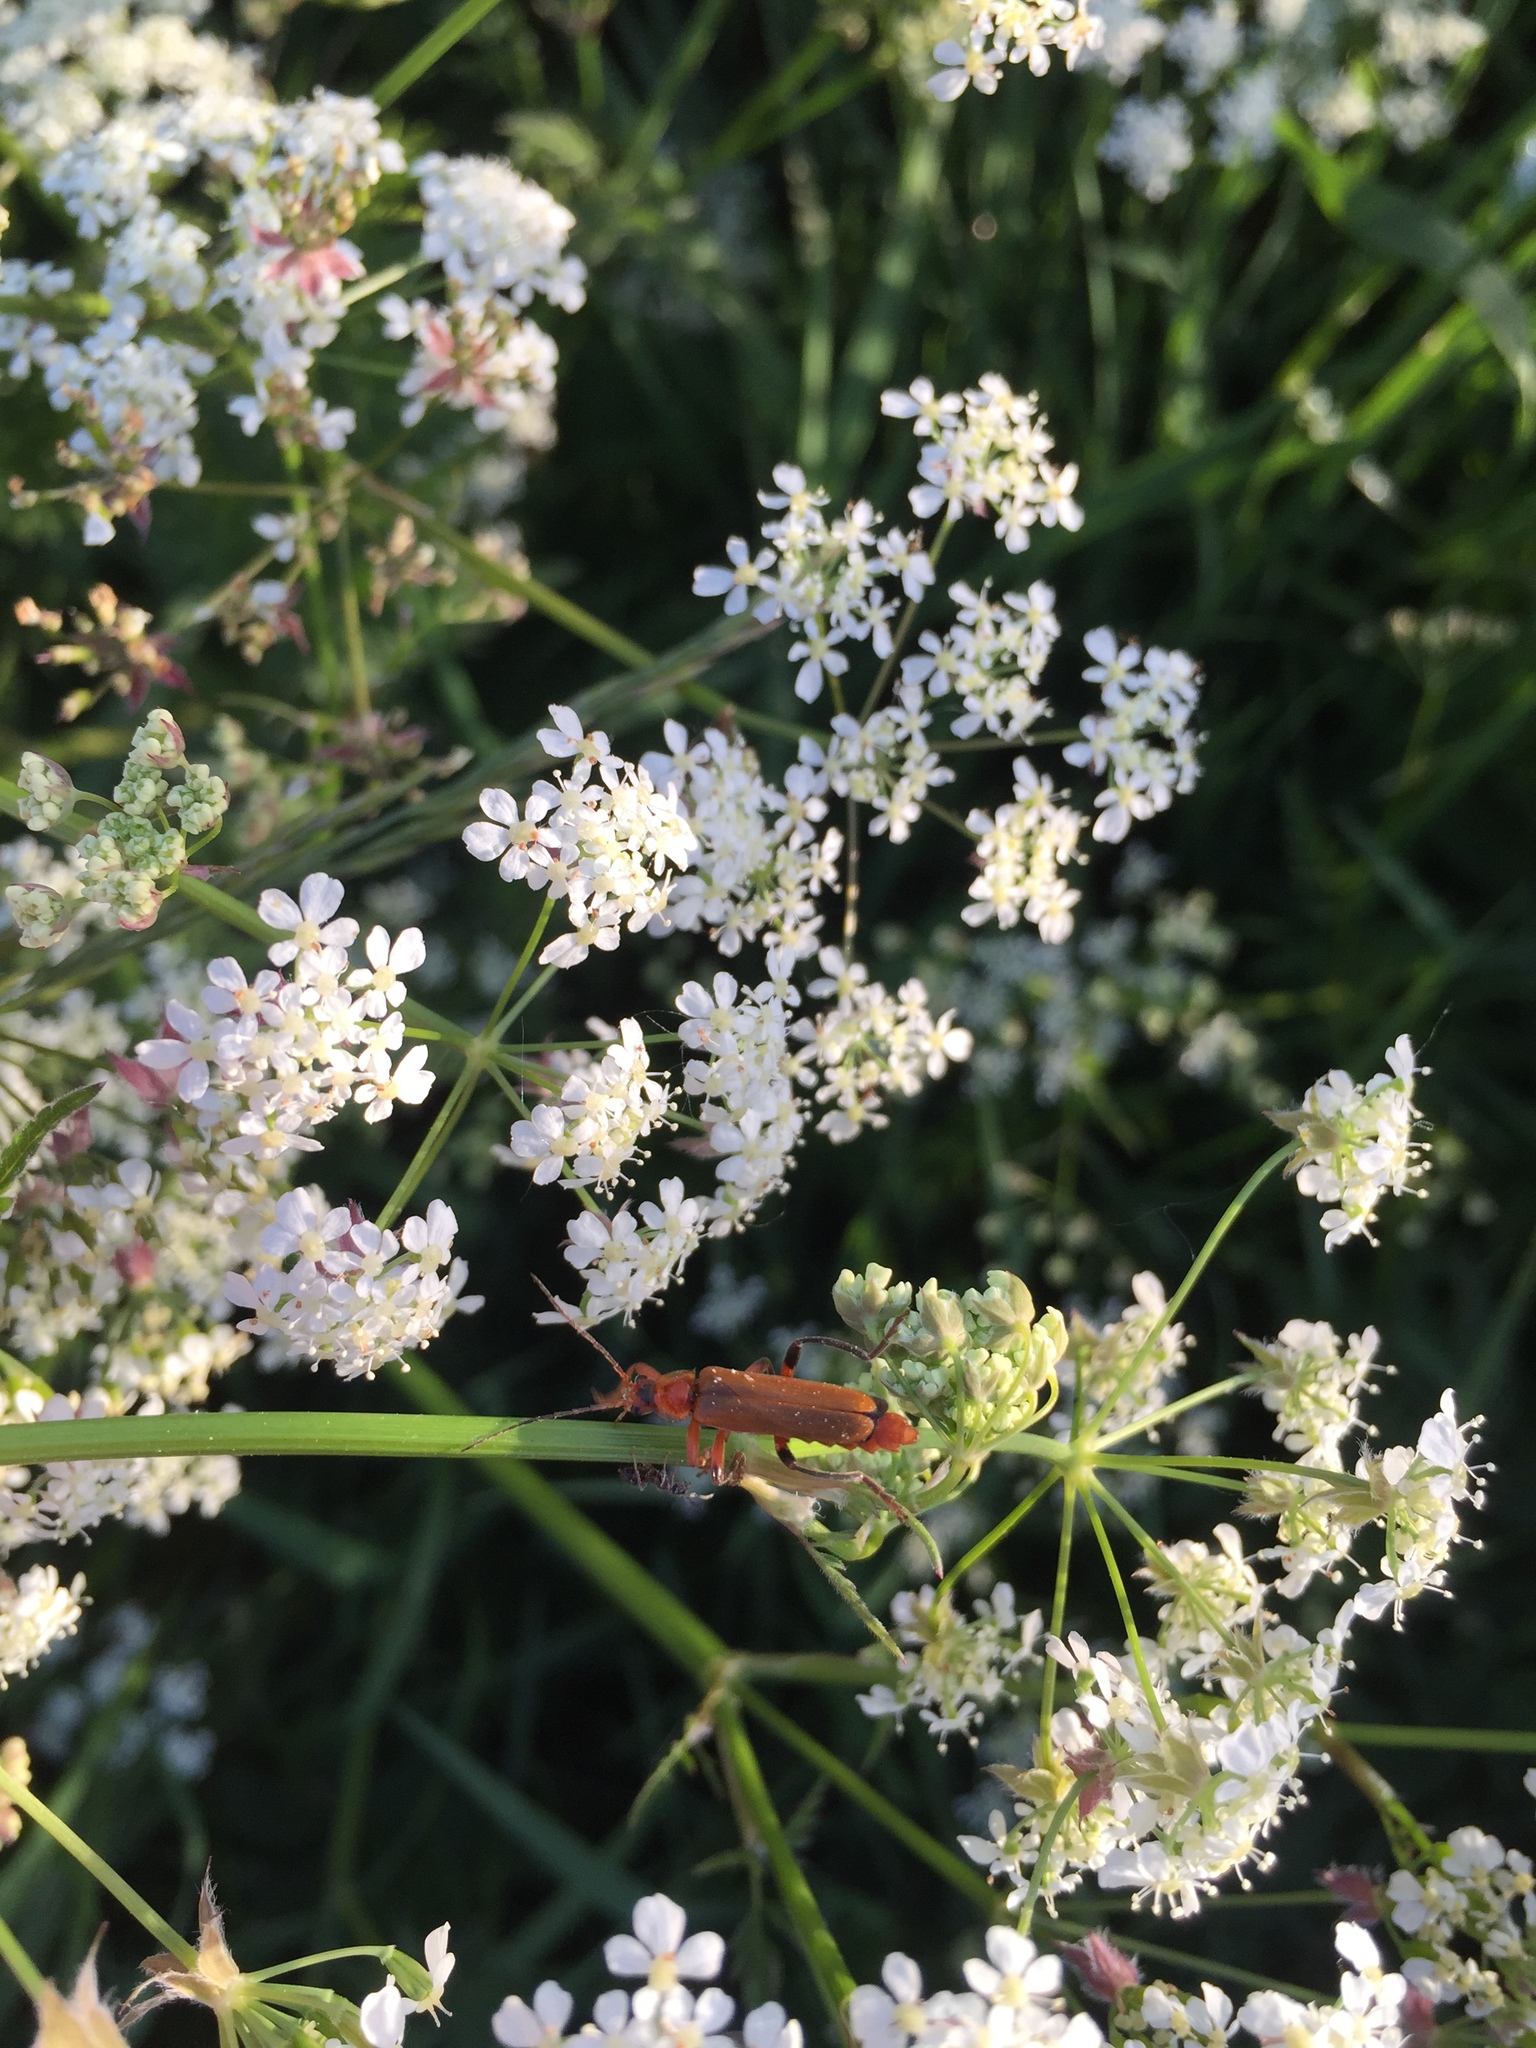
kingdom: Animalia
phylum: Arthropoda
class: Insecta
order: Coleoptera
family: Cantharidae
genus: Cantharis
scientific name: Cantharis livida
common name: Livid soldier beetle
